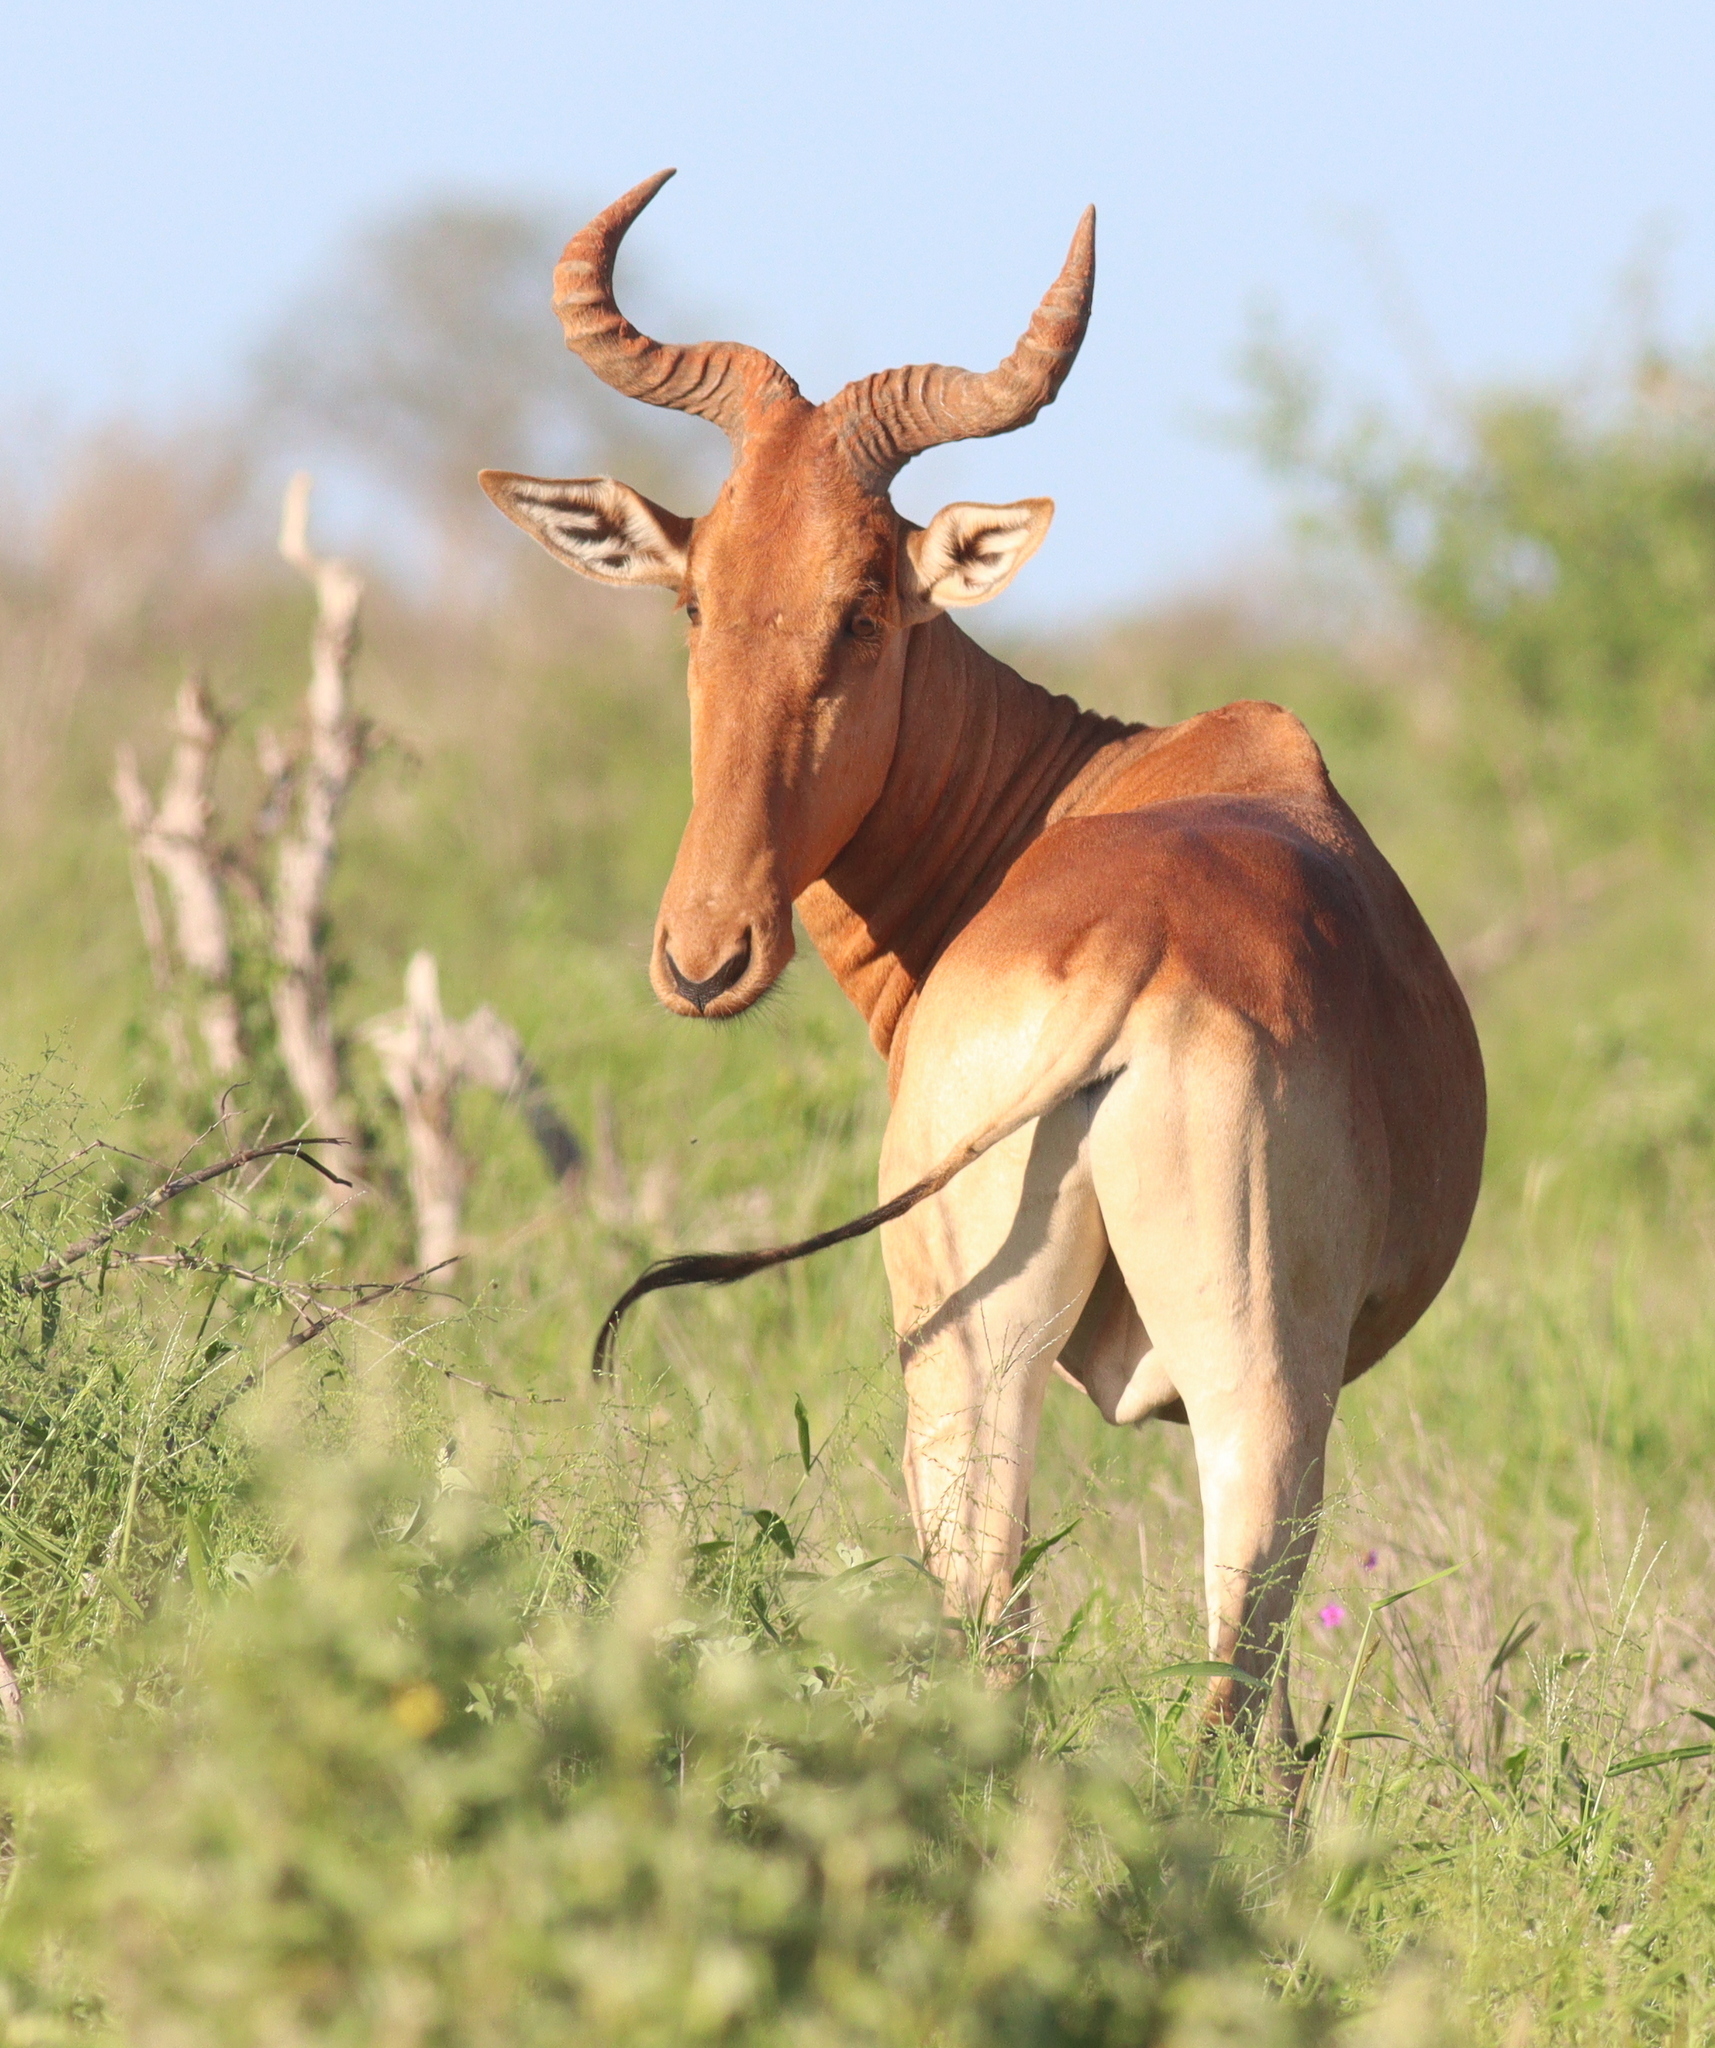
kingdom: Animalia
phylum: Chordata
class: Mammalia
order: Artiodactyla
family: Bovidae
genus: Alcelaphus
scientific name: Alcelaphus buselaphus
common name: Hartebeest
